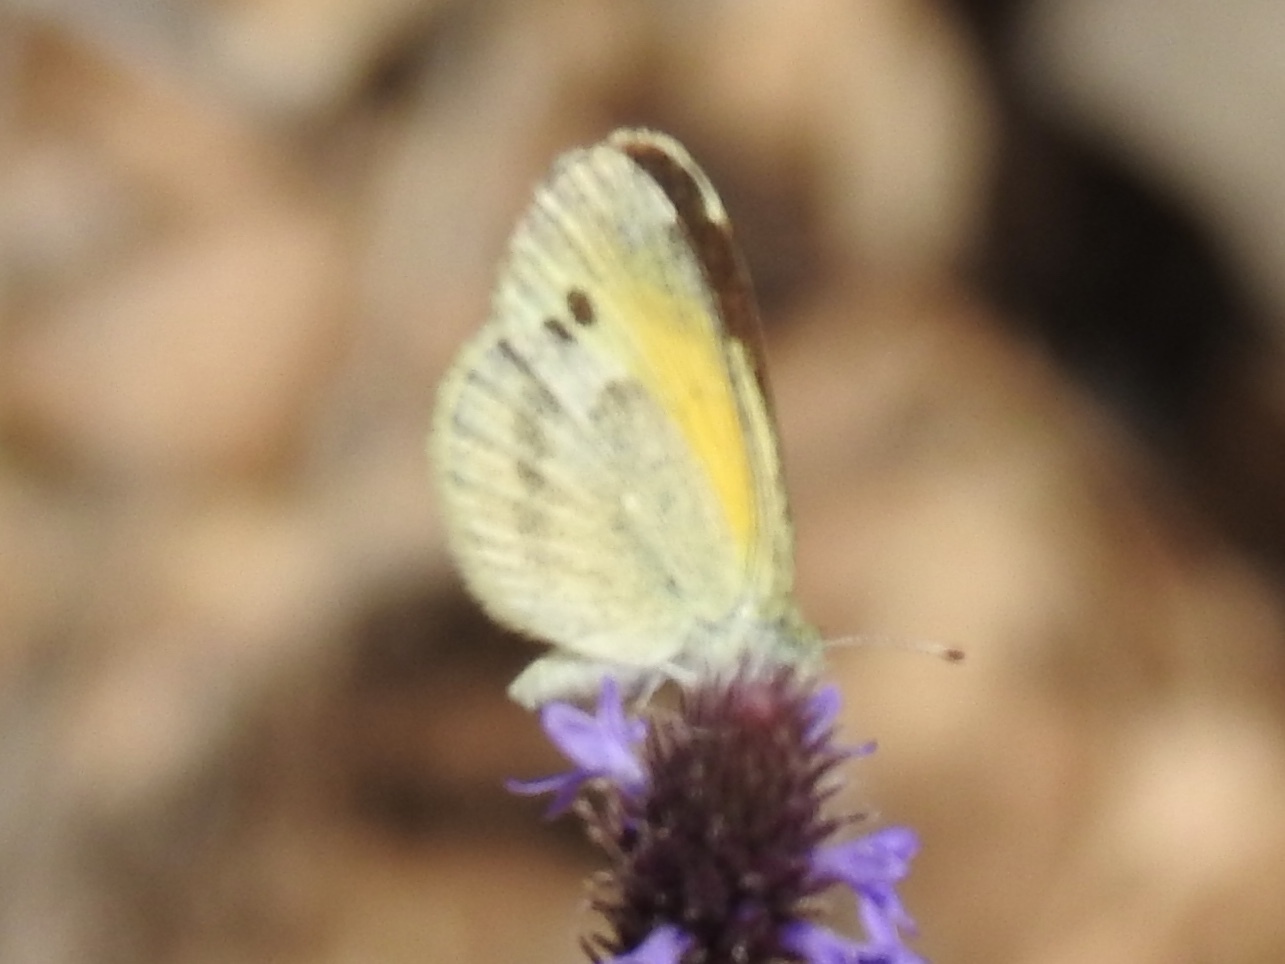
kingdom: Animalia
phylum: Arthropoda
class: Insecta
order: Lepidoptera
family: Pieridae
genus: Nathalis
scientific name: Nathalis iole
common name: Dainty sulphur
